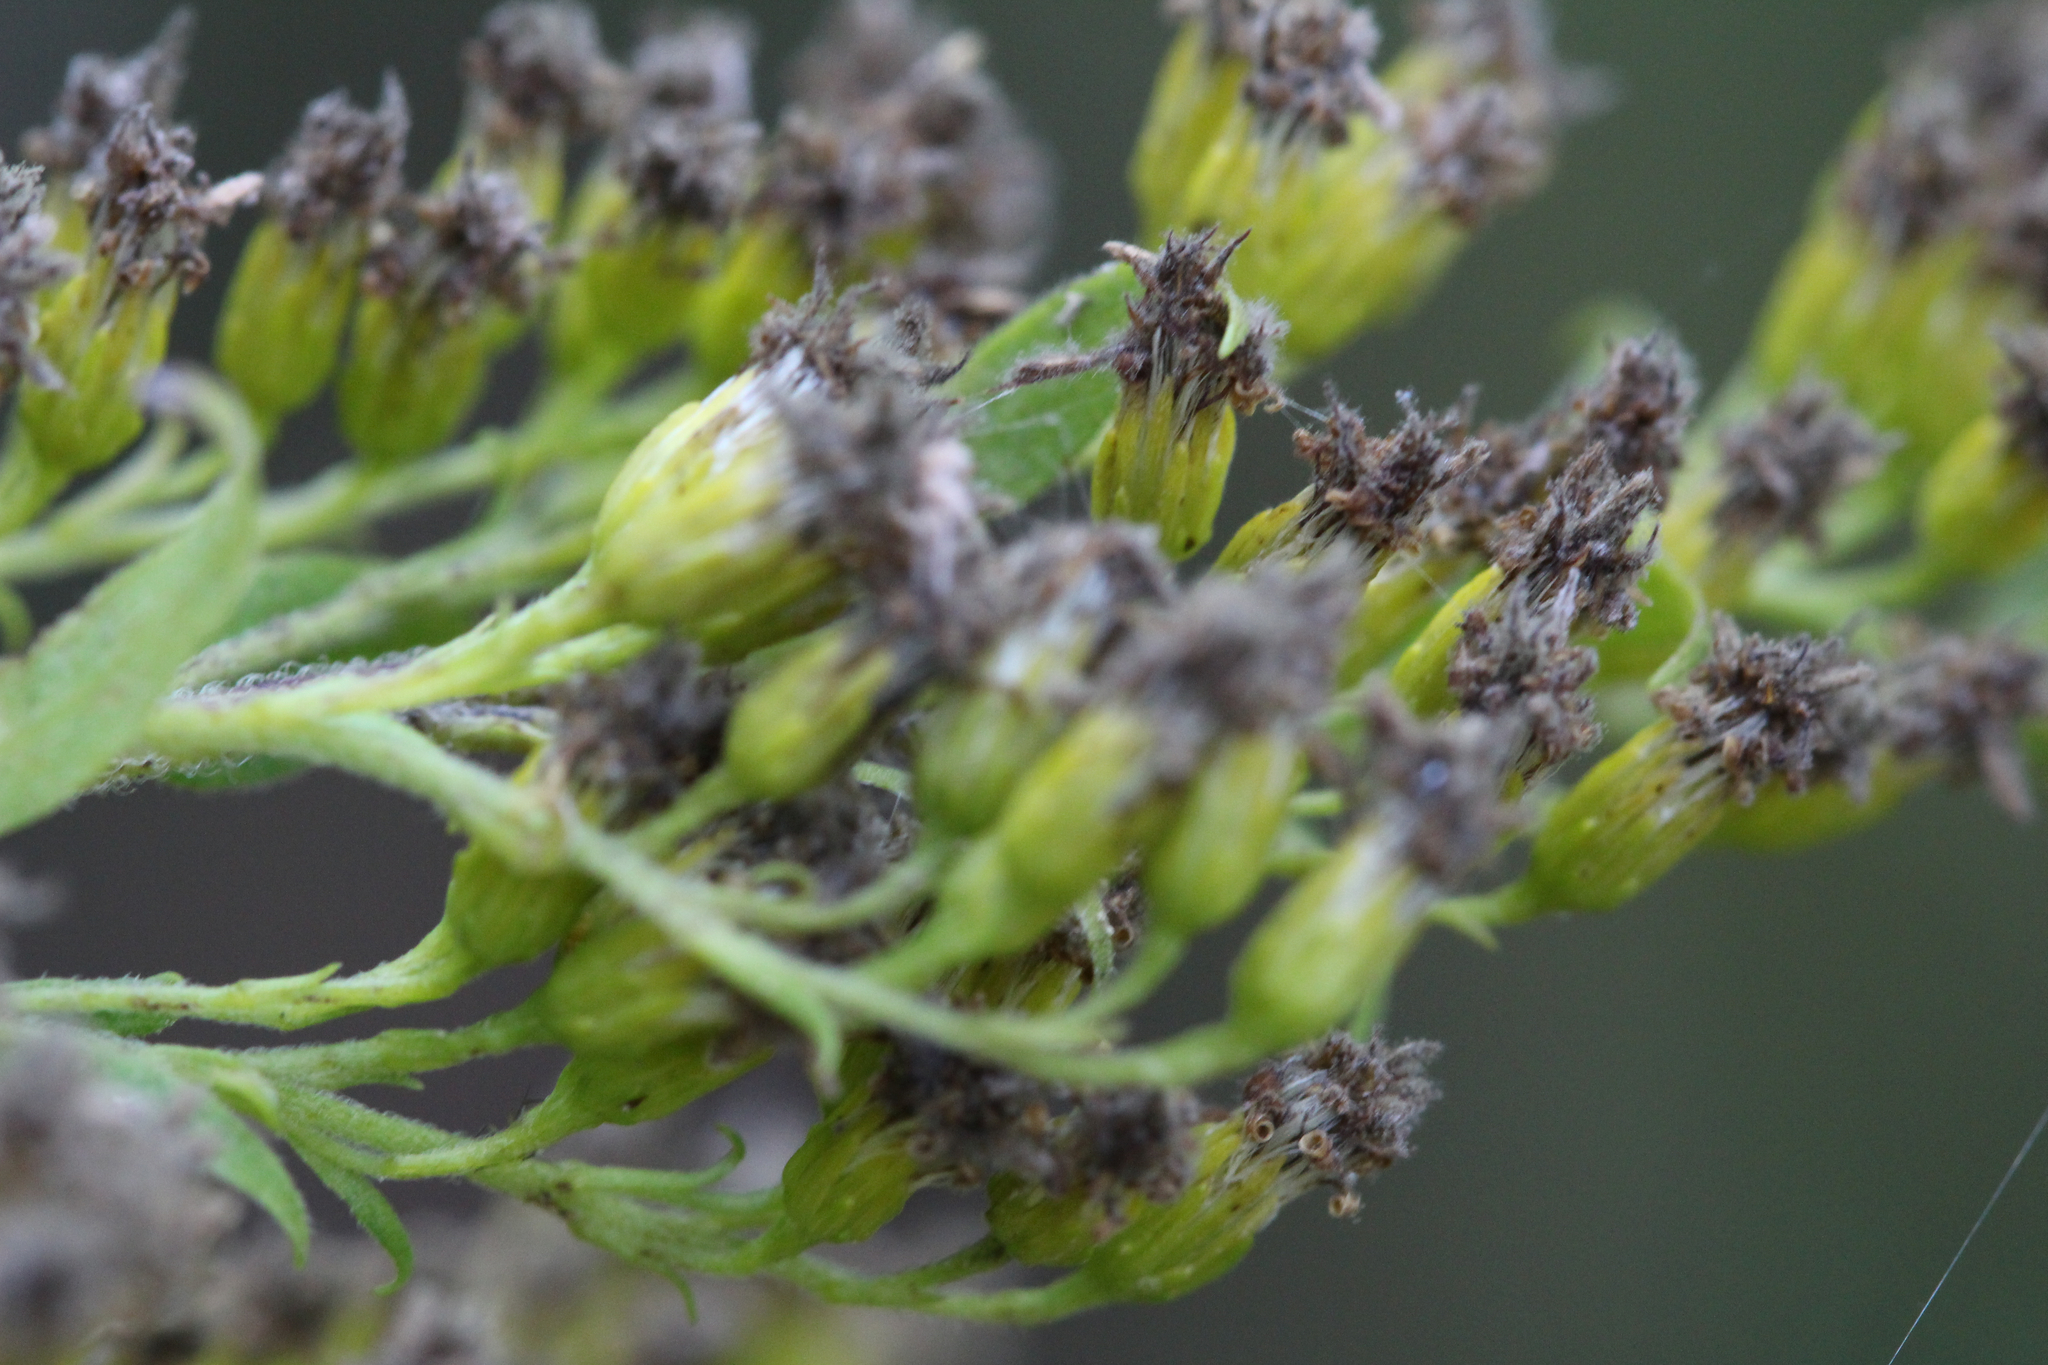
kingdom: Plantae
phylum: Tracheophyta
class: Magnoliopsida
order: Asterales
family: Asteraceae
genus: Solidago
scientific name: Solidago altissima
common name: Late goldenrod
